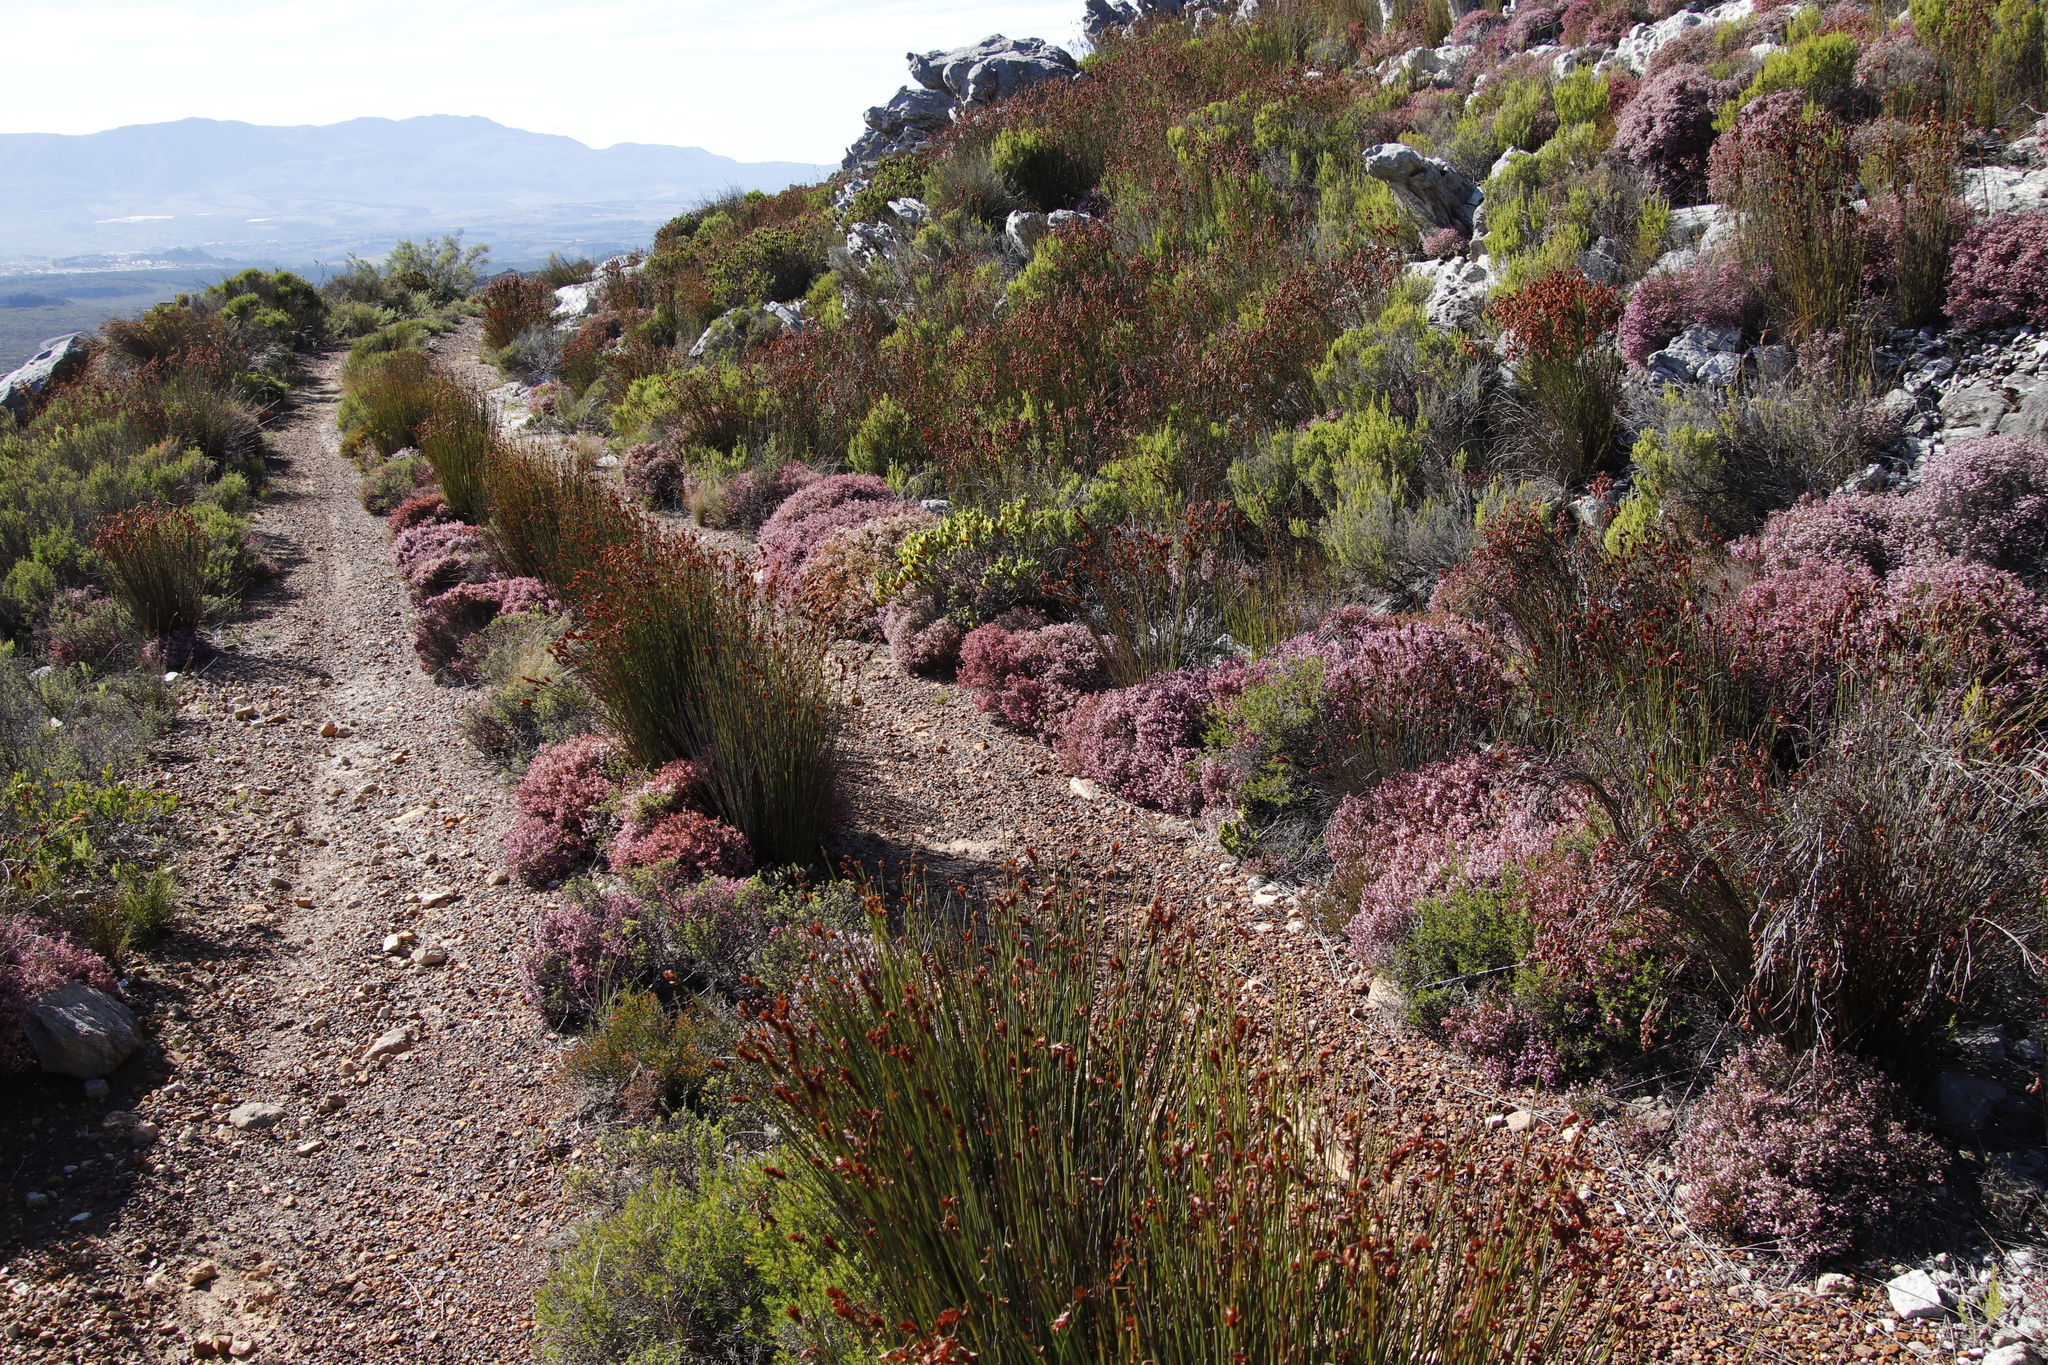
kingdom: Plantae
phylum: Tracheophyta
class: Magnoliopsida
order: Ericales
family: Ericaceae
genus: Erica
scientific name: Erica equisetifolia
